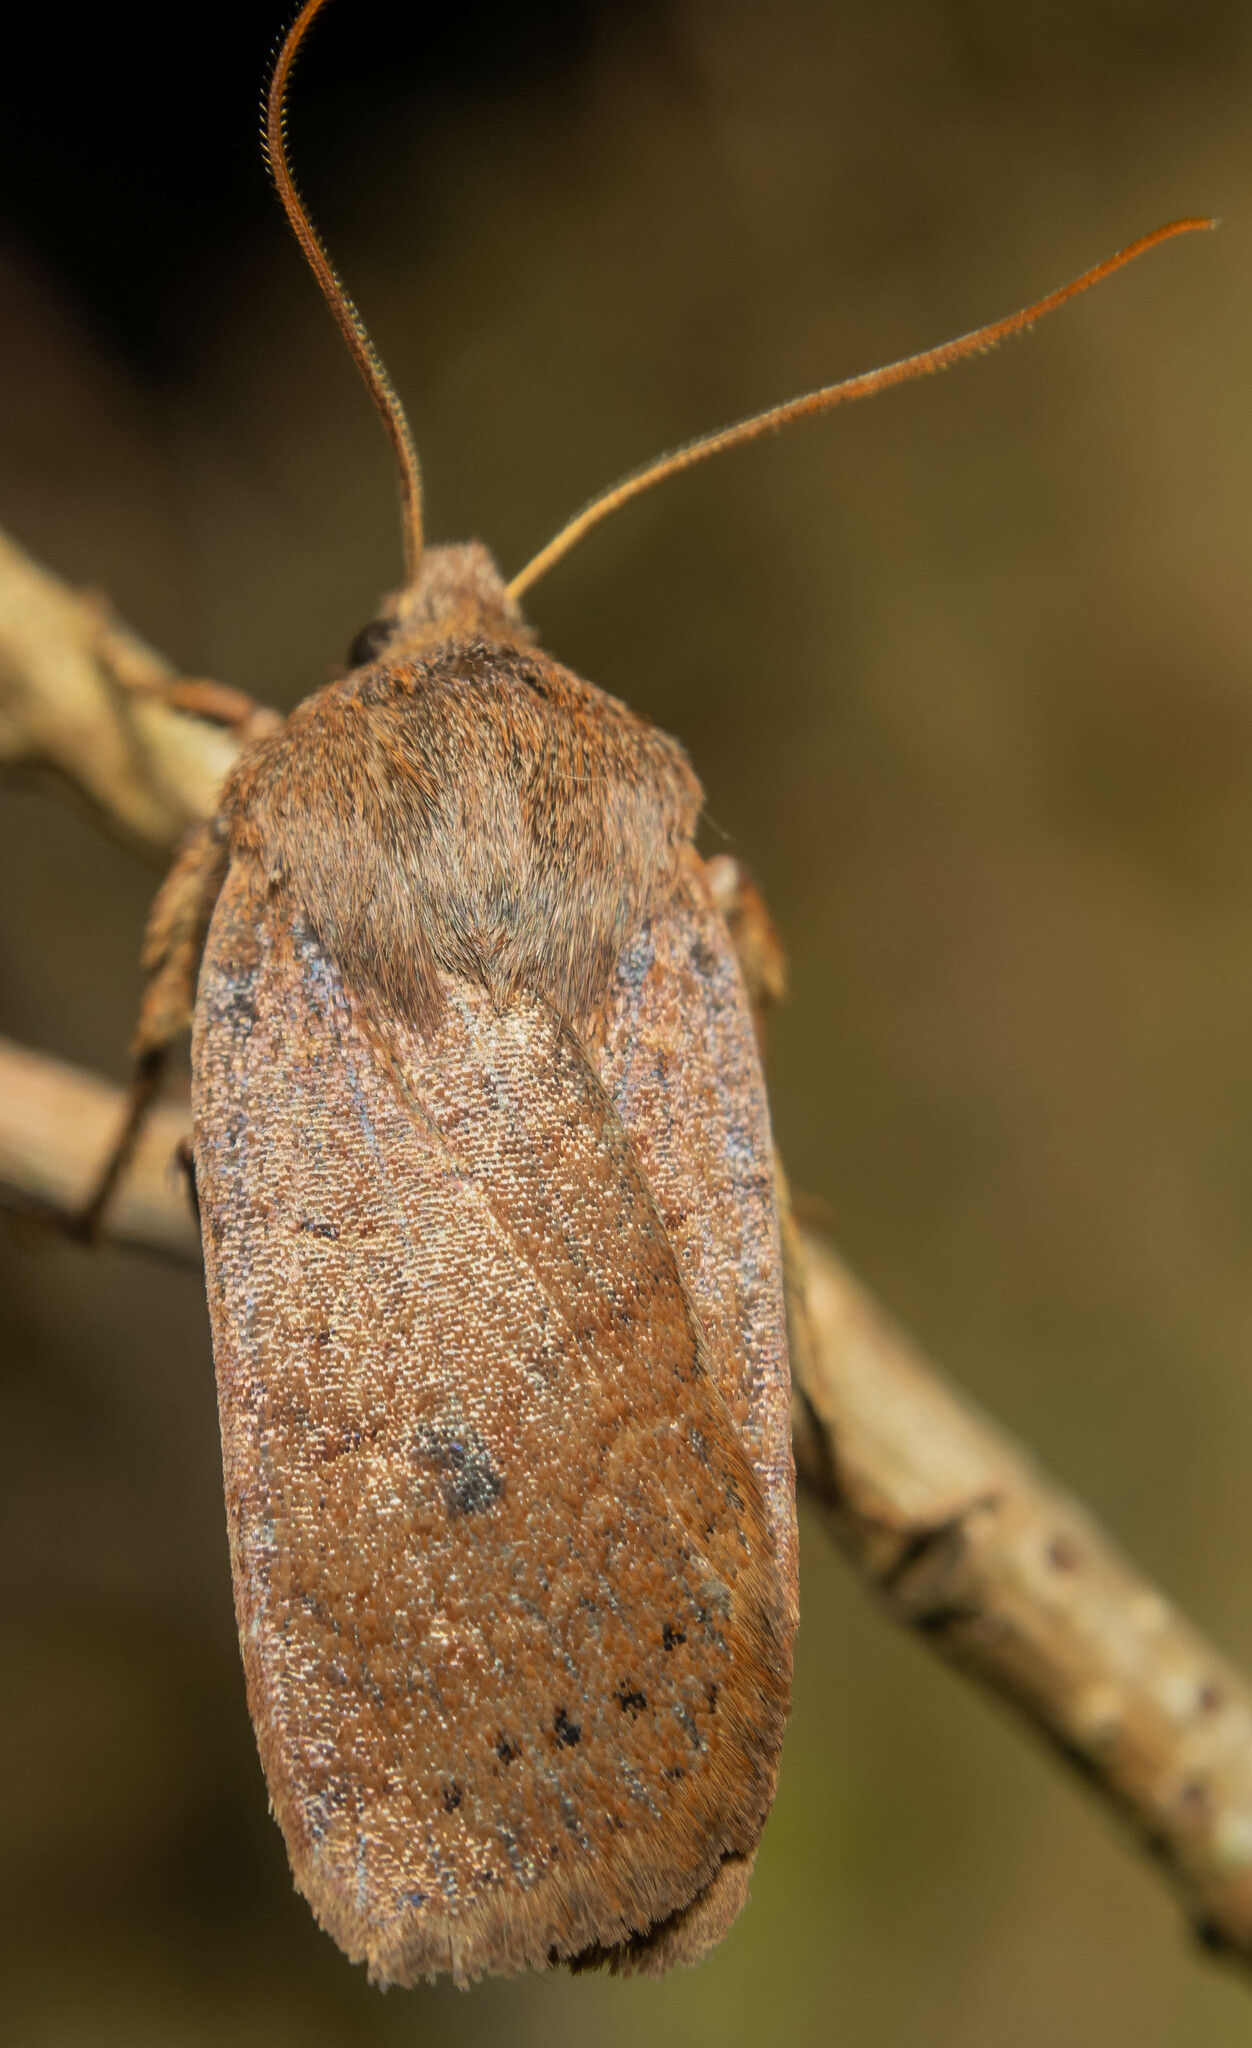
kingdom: Animalia
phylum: Arthropoda
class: Insecta
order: Lepidoptera
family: Noctuidae
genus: Conistra
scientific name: Conistra vaccinii
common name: Chestnut
